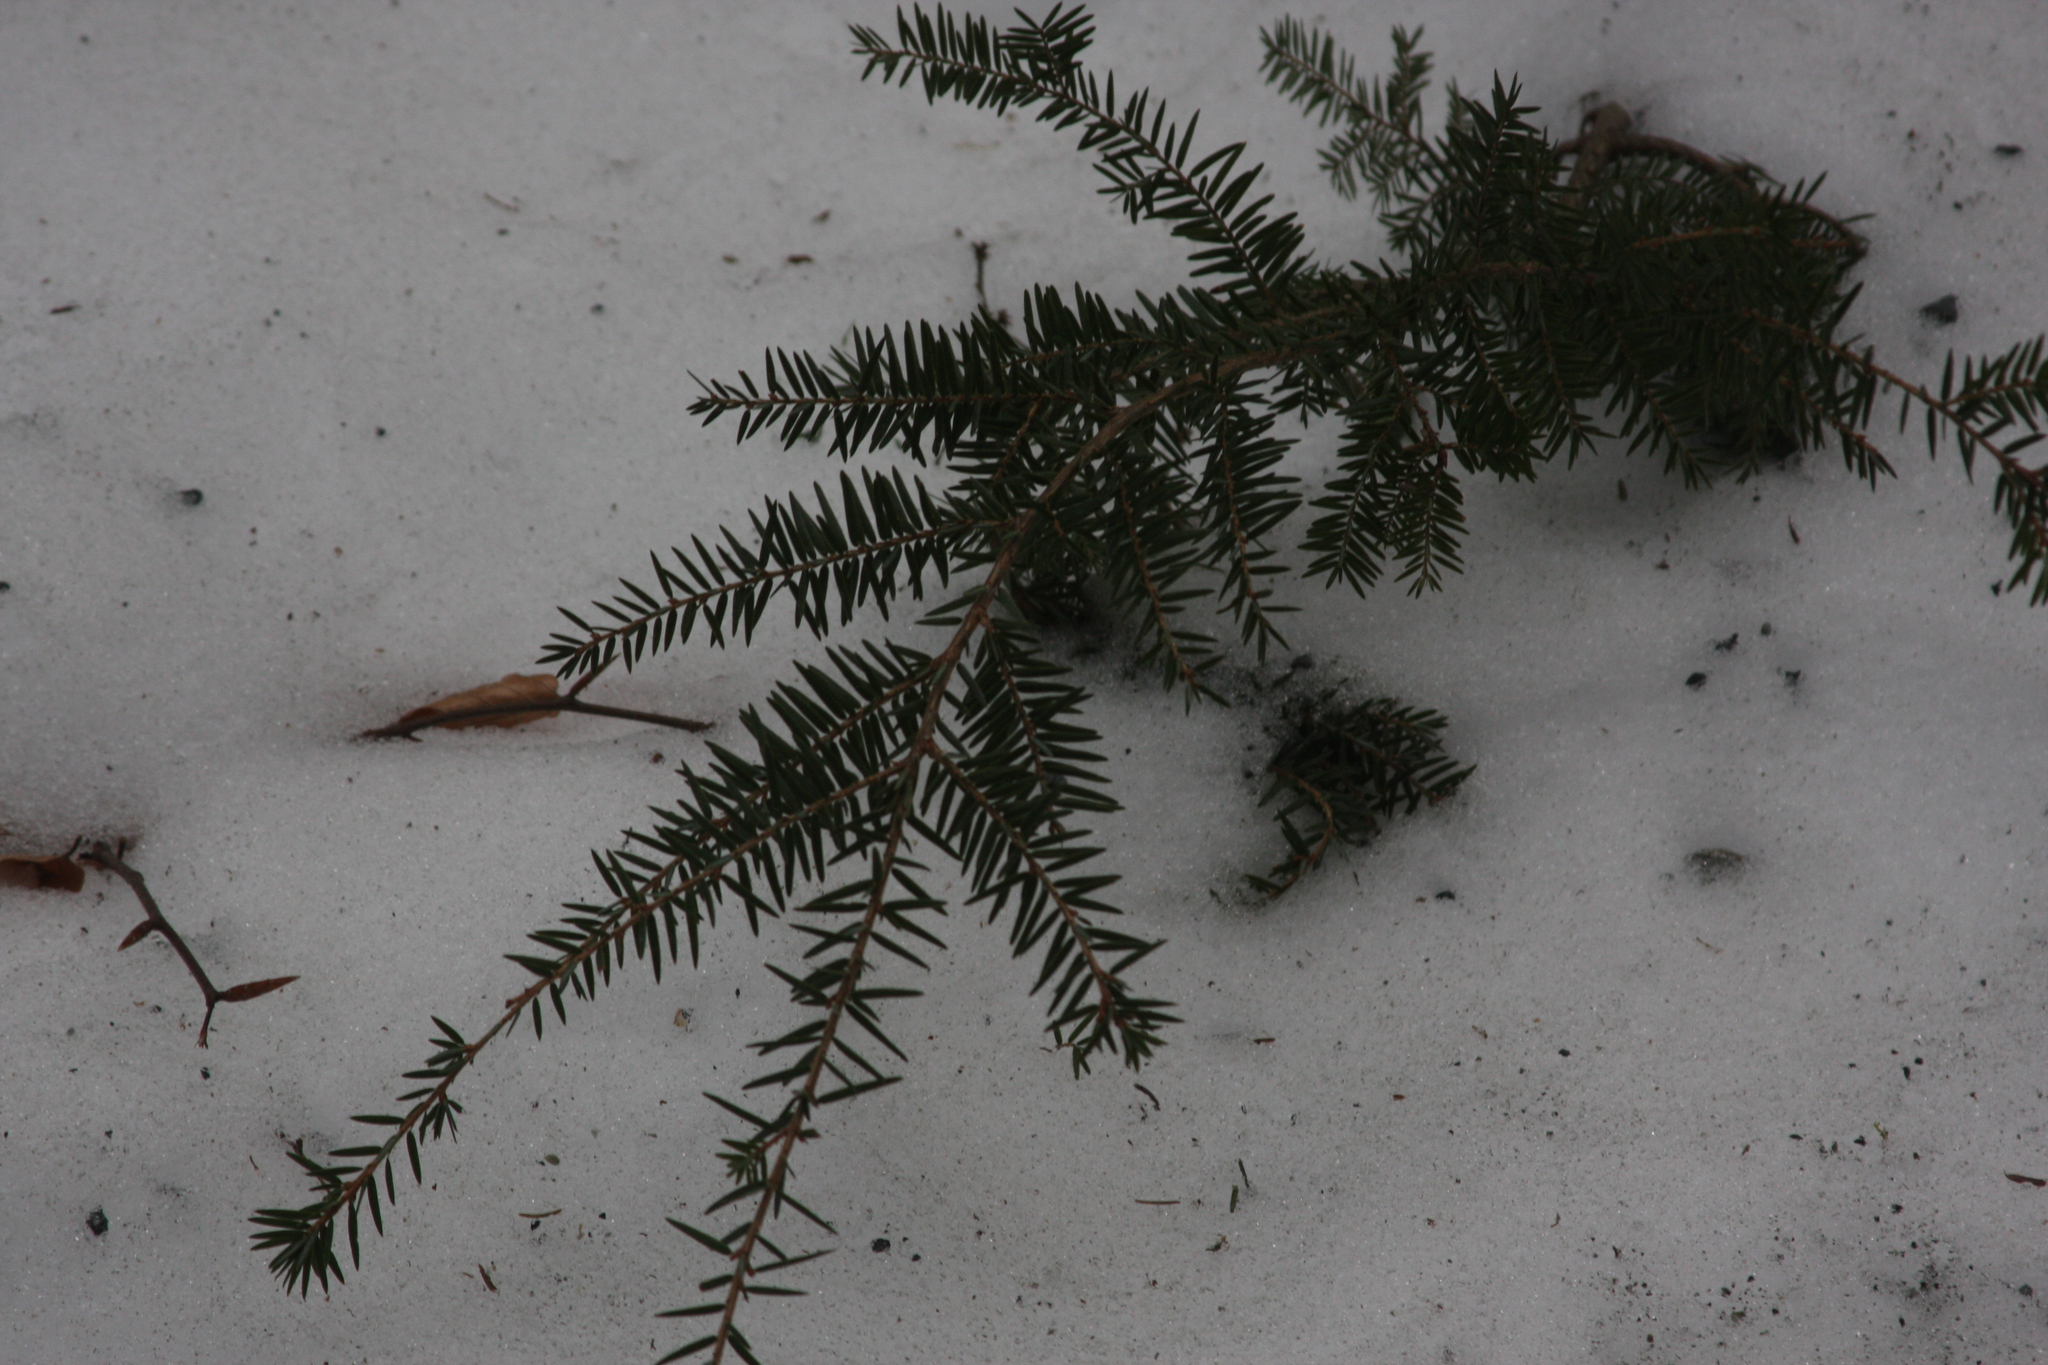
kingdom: Plantae
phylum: Tracheophyta
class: Pinopsida
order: Pinales
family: Pinaceae
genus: Tsuga
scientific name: Tsuga canadensis
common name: Eastern hemlock
